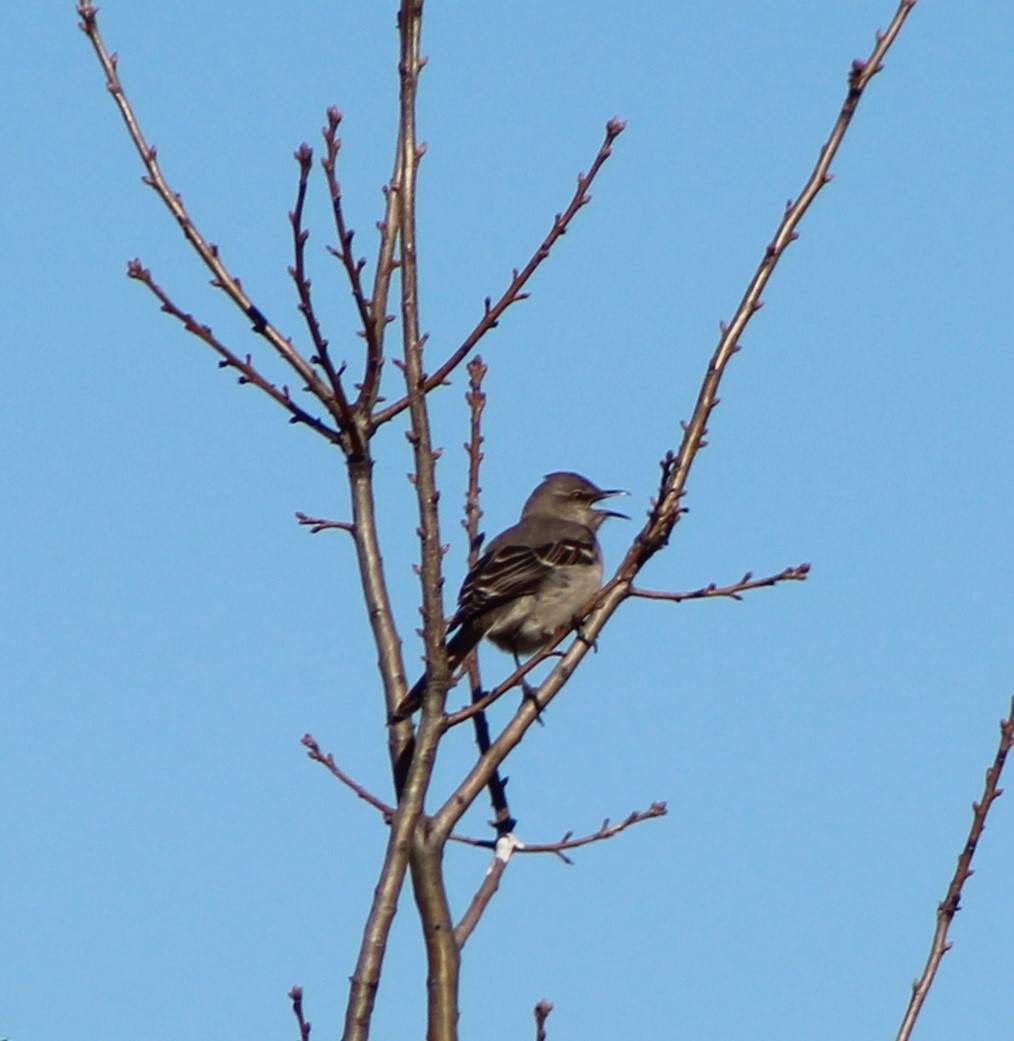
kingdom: Animalia
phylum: Chordata
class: Aves
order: Passeriformes
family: Mimidae
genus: Mimus
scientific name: Mimus polyglottos
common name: Northern mockingbird
